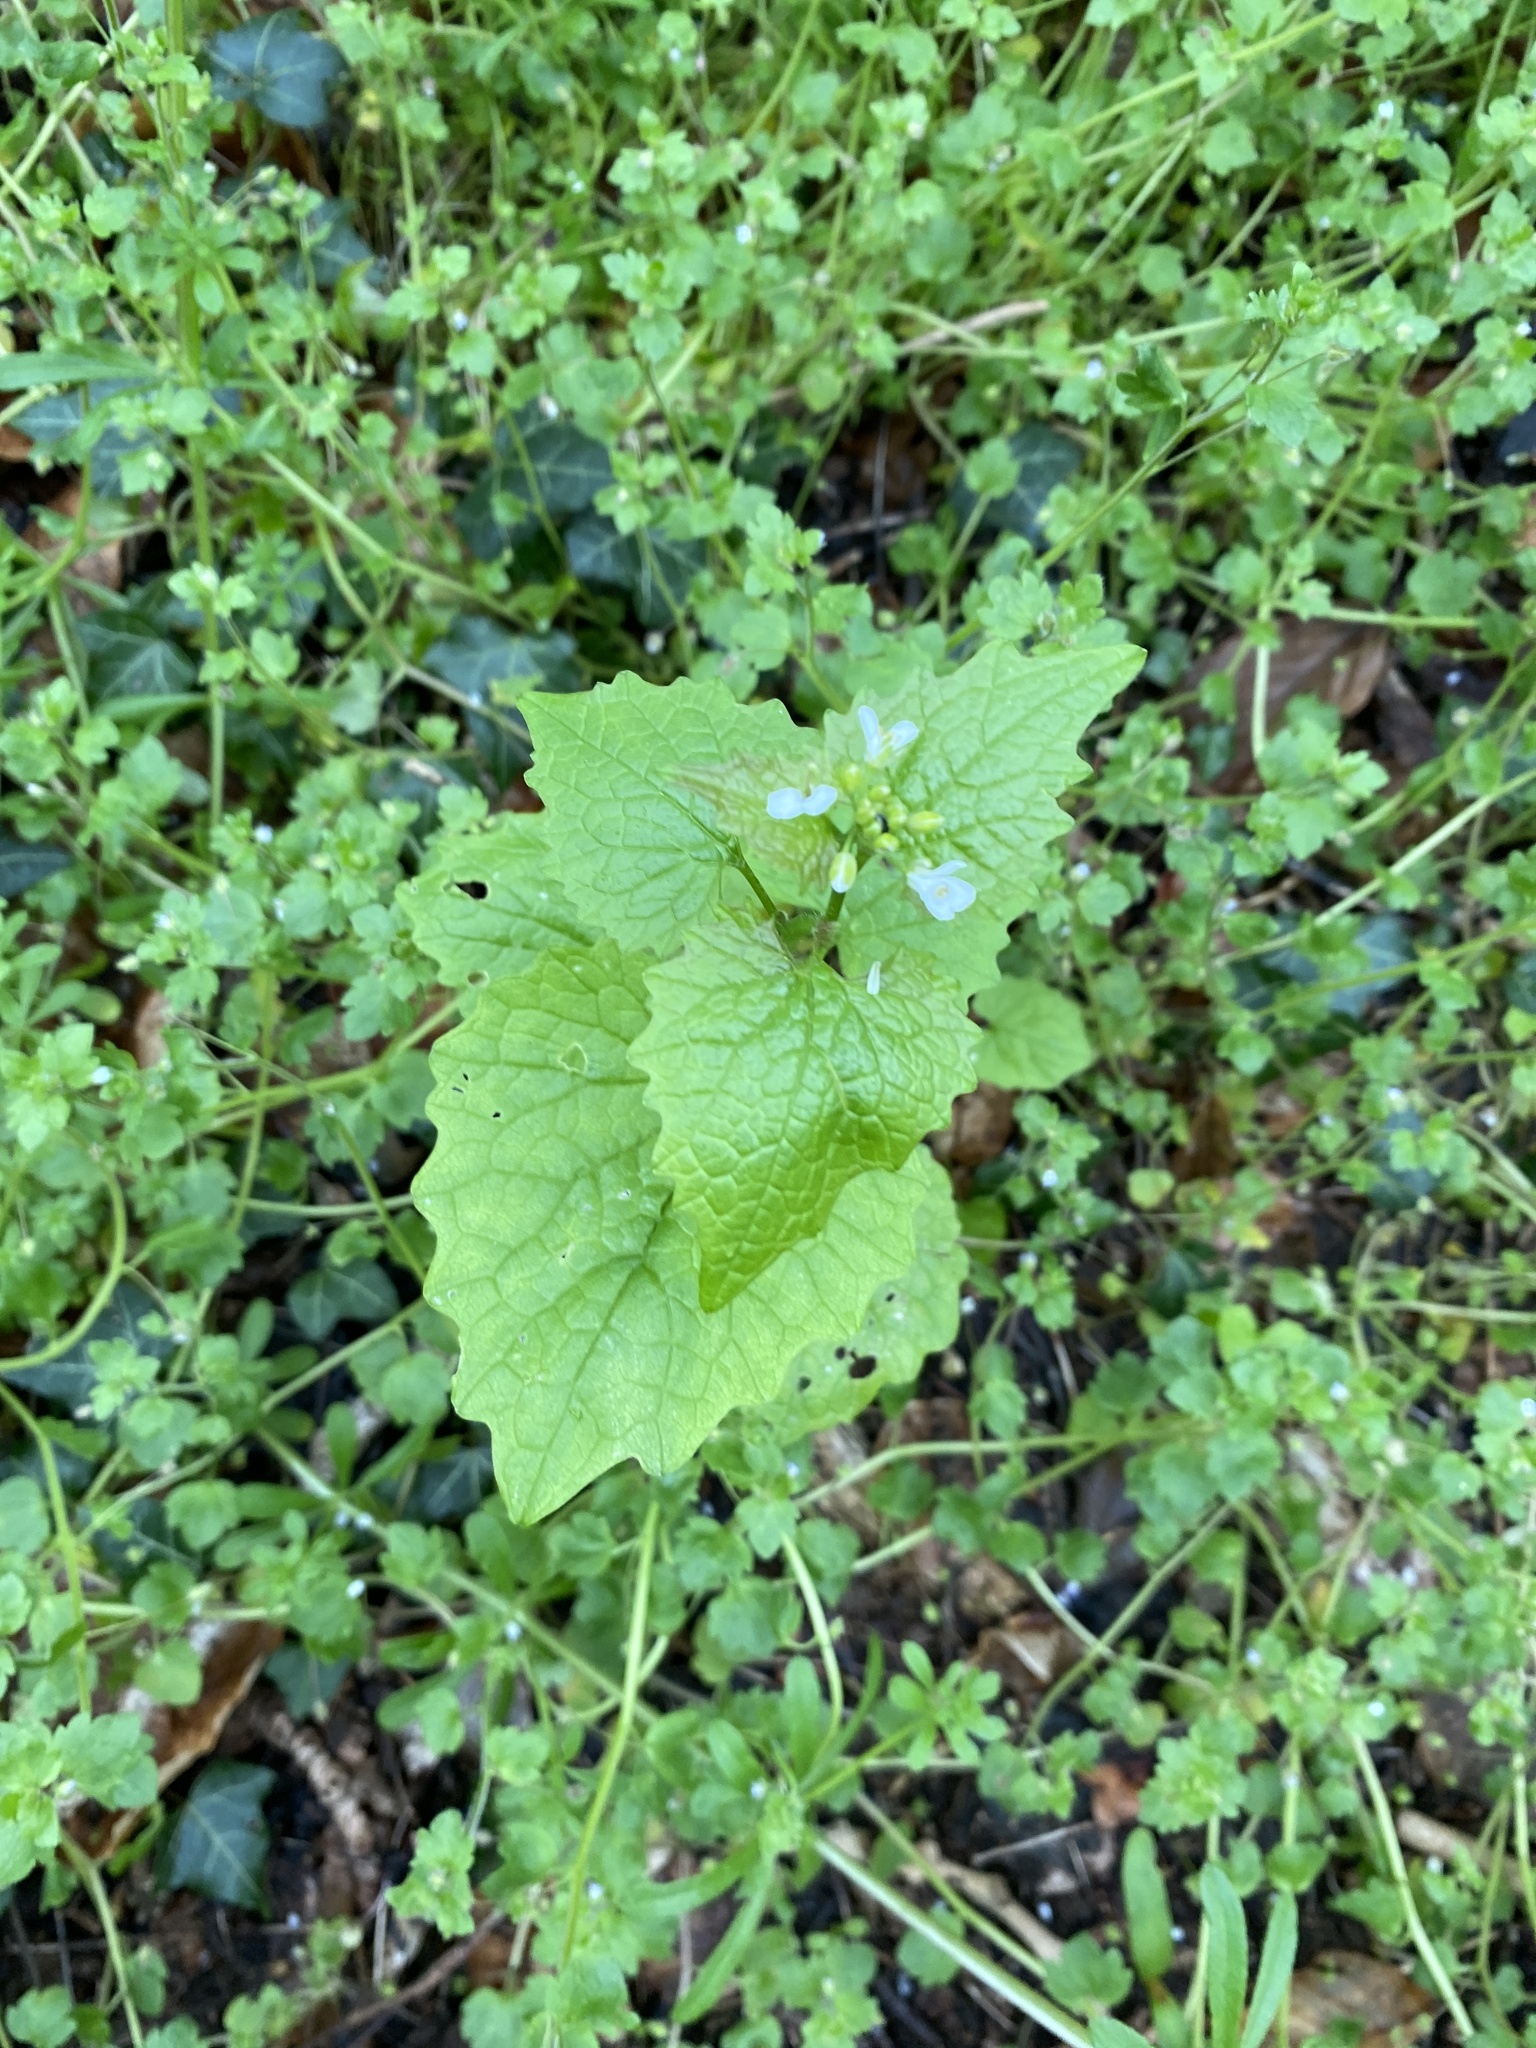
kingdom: Plantae
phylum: Tracheophyta
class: Magnoliopsida
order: Brassicales
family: Brassicaceae
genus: Alliaria
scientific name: Alliaria petiolata
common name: Garlic mustard
